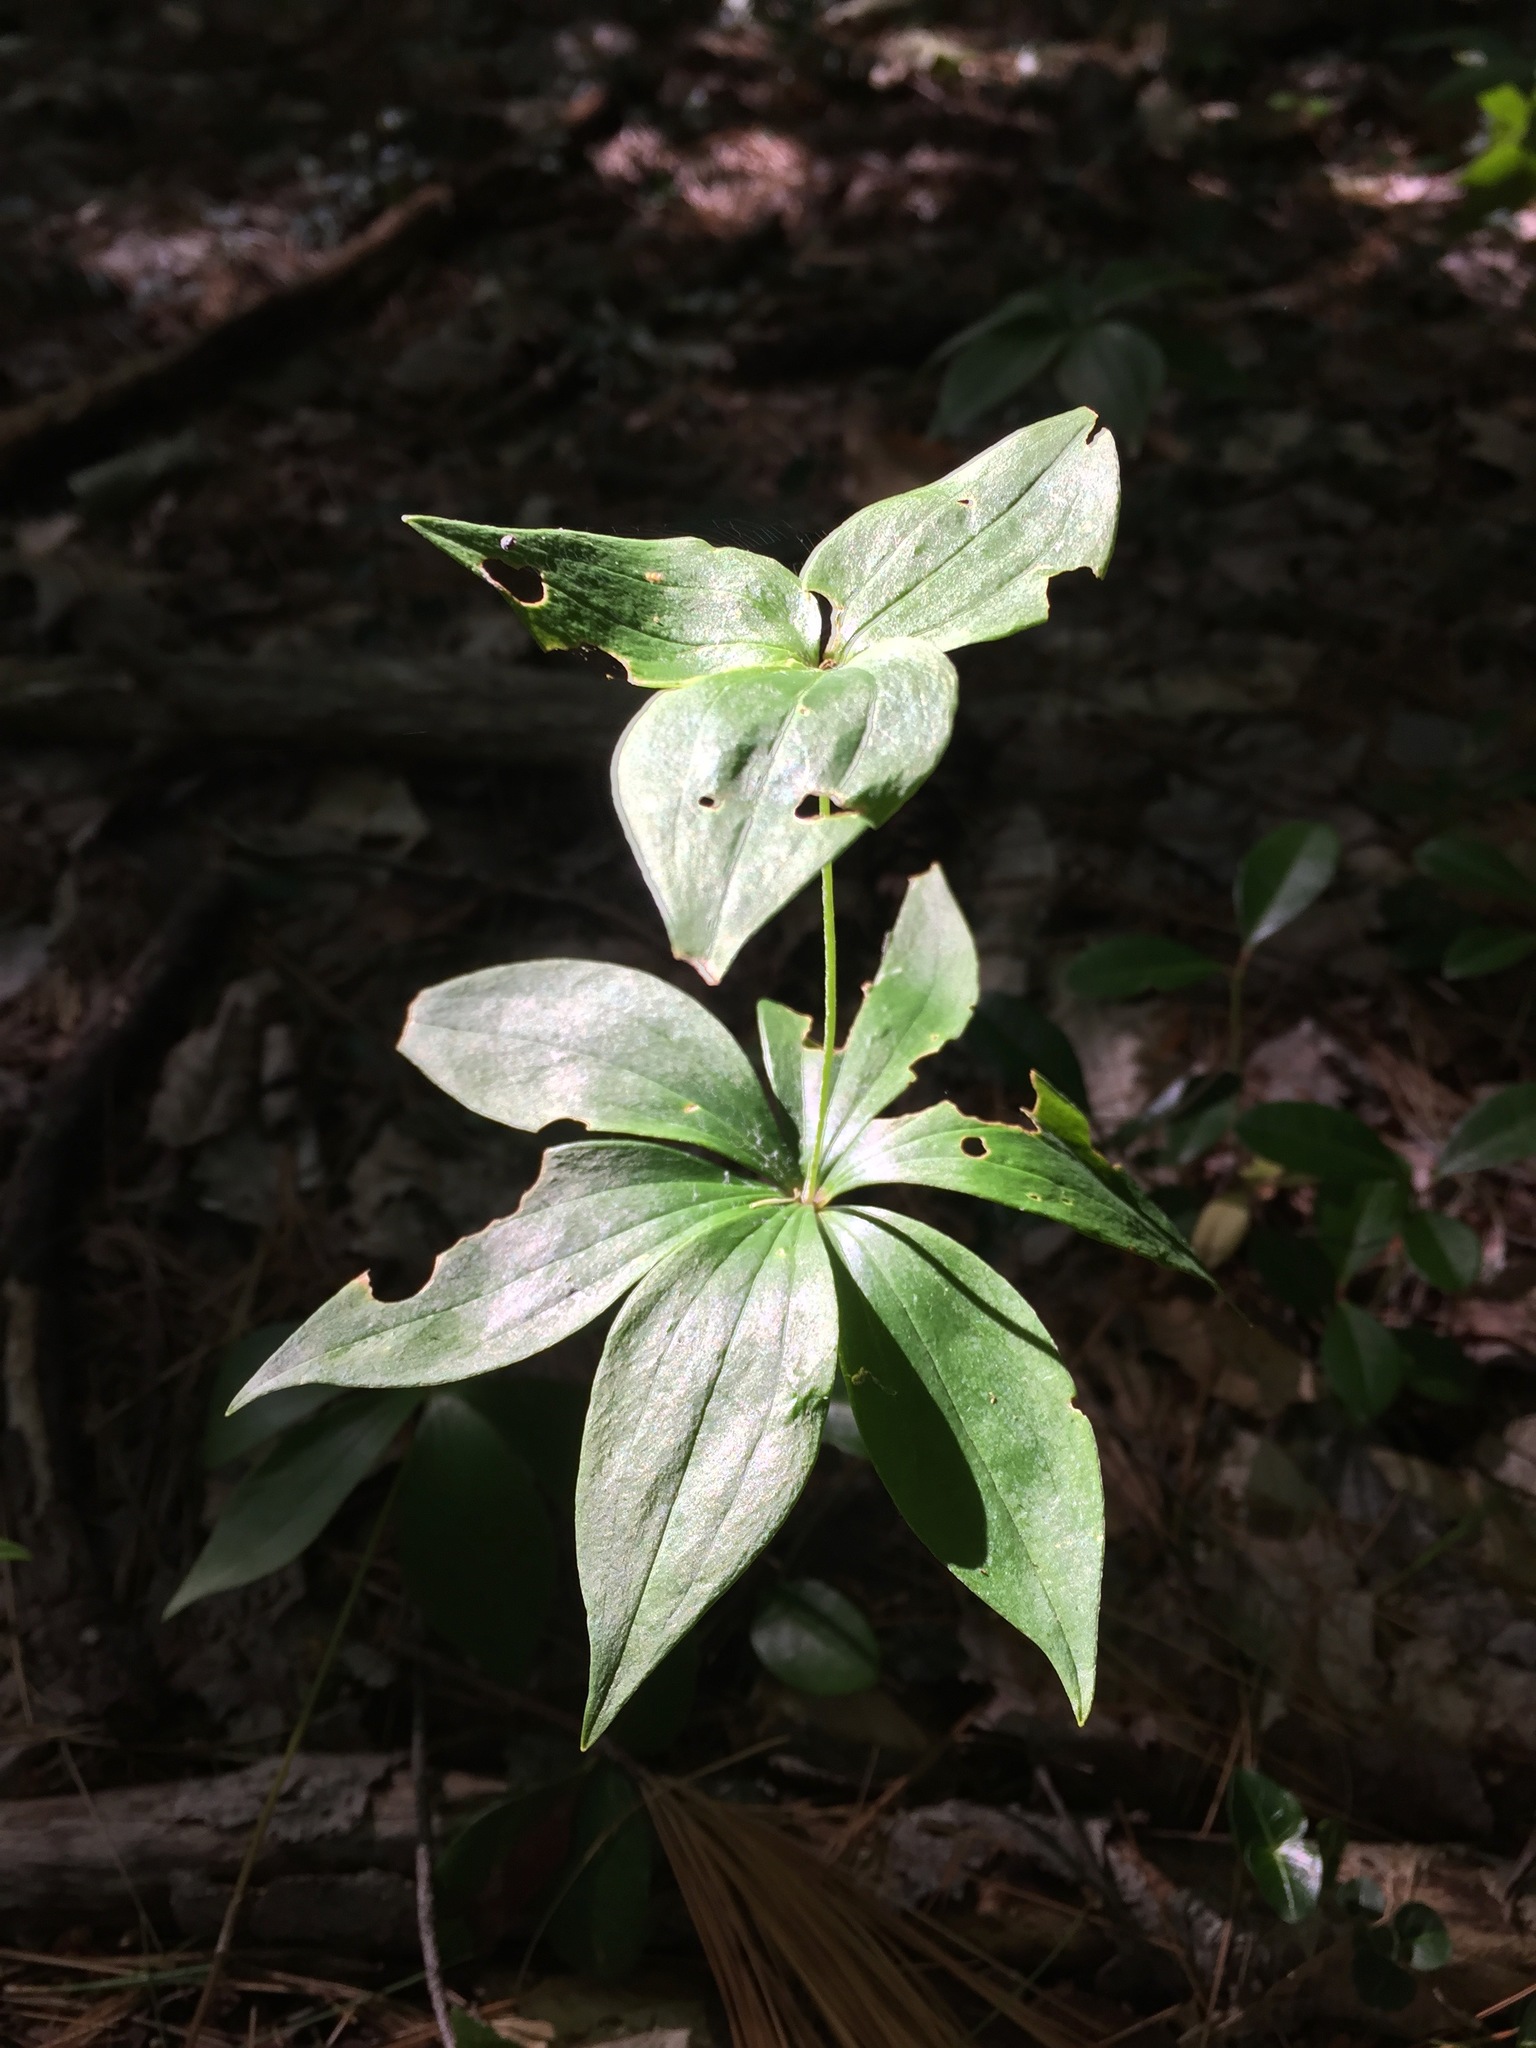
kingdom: Plantae
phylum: Tracheophyta
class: Liliopsida
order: Liliales
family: Liliaceae
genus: Medeola
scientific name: Medeola virginiana
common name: Indian cucumber-root
